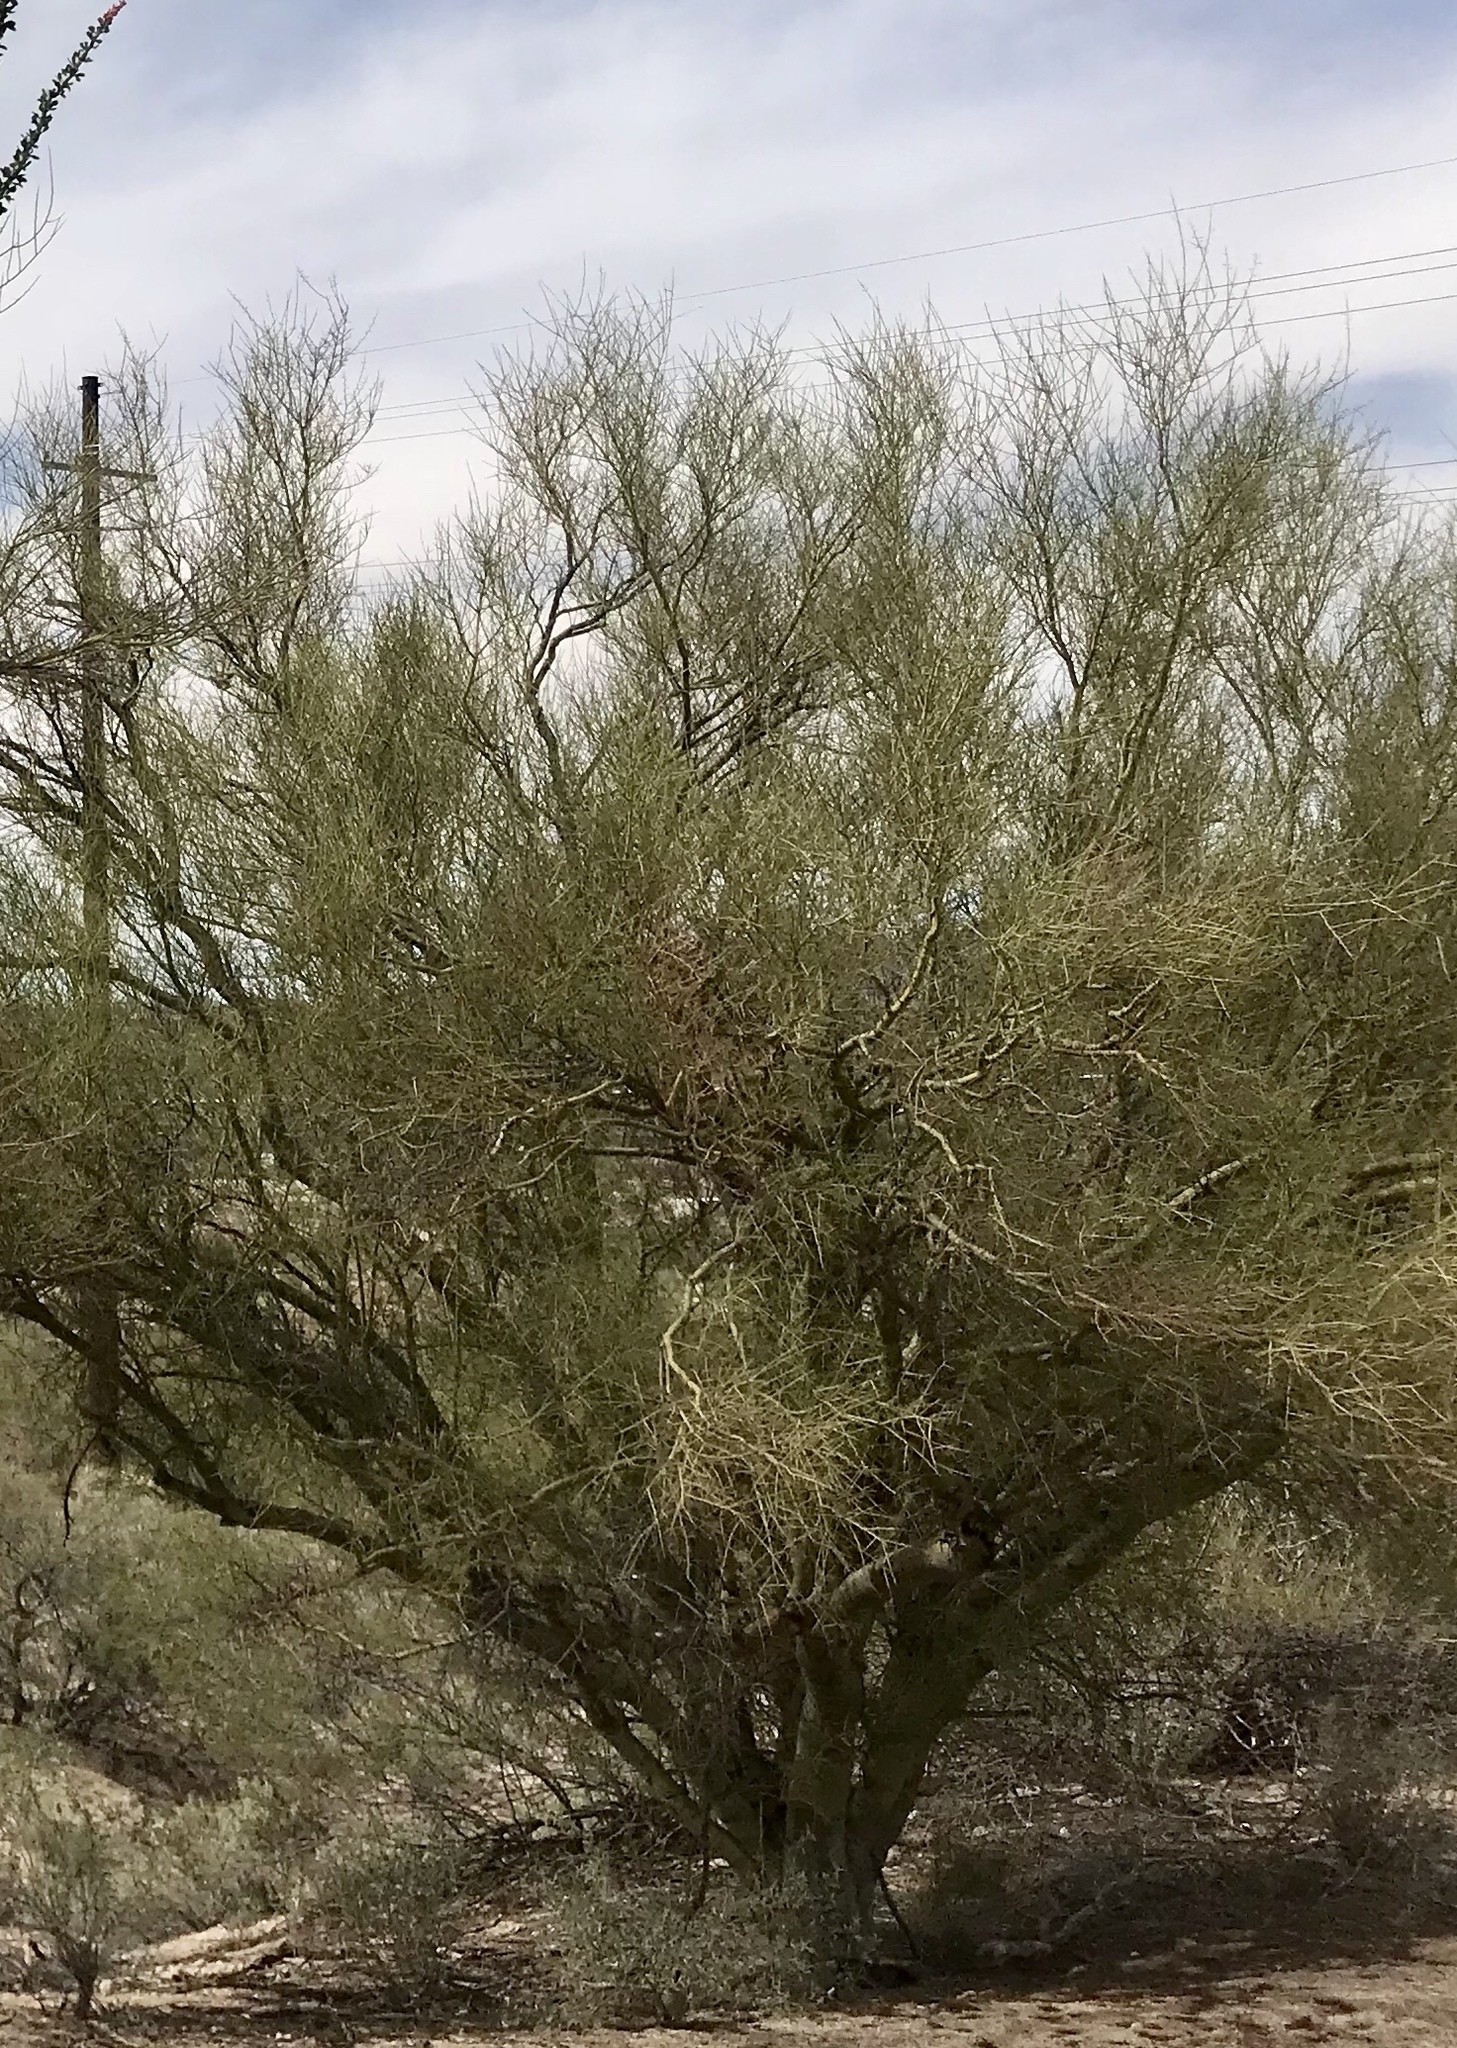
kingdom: Plantae
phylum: Tracheophyta
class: Magnoliopsida
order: Fabales
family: Fabaceae
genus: Parkinsonia
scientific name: Parkinsonia microphylla
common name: Yellow paloverde
